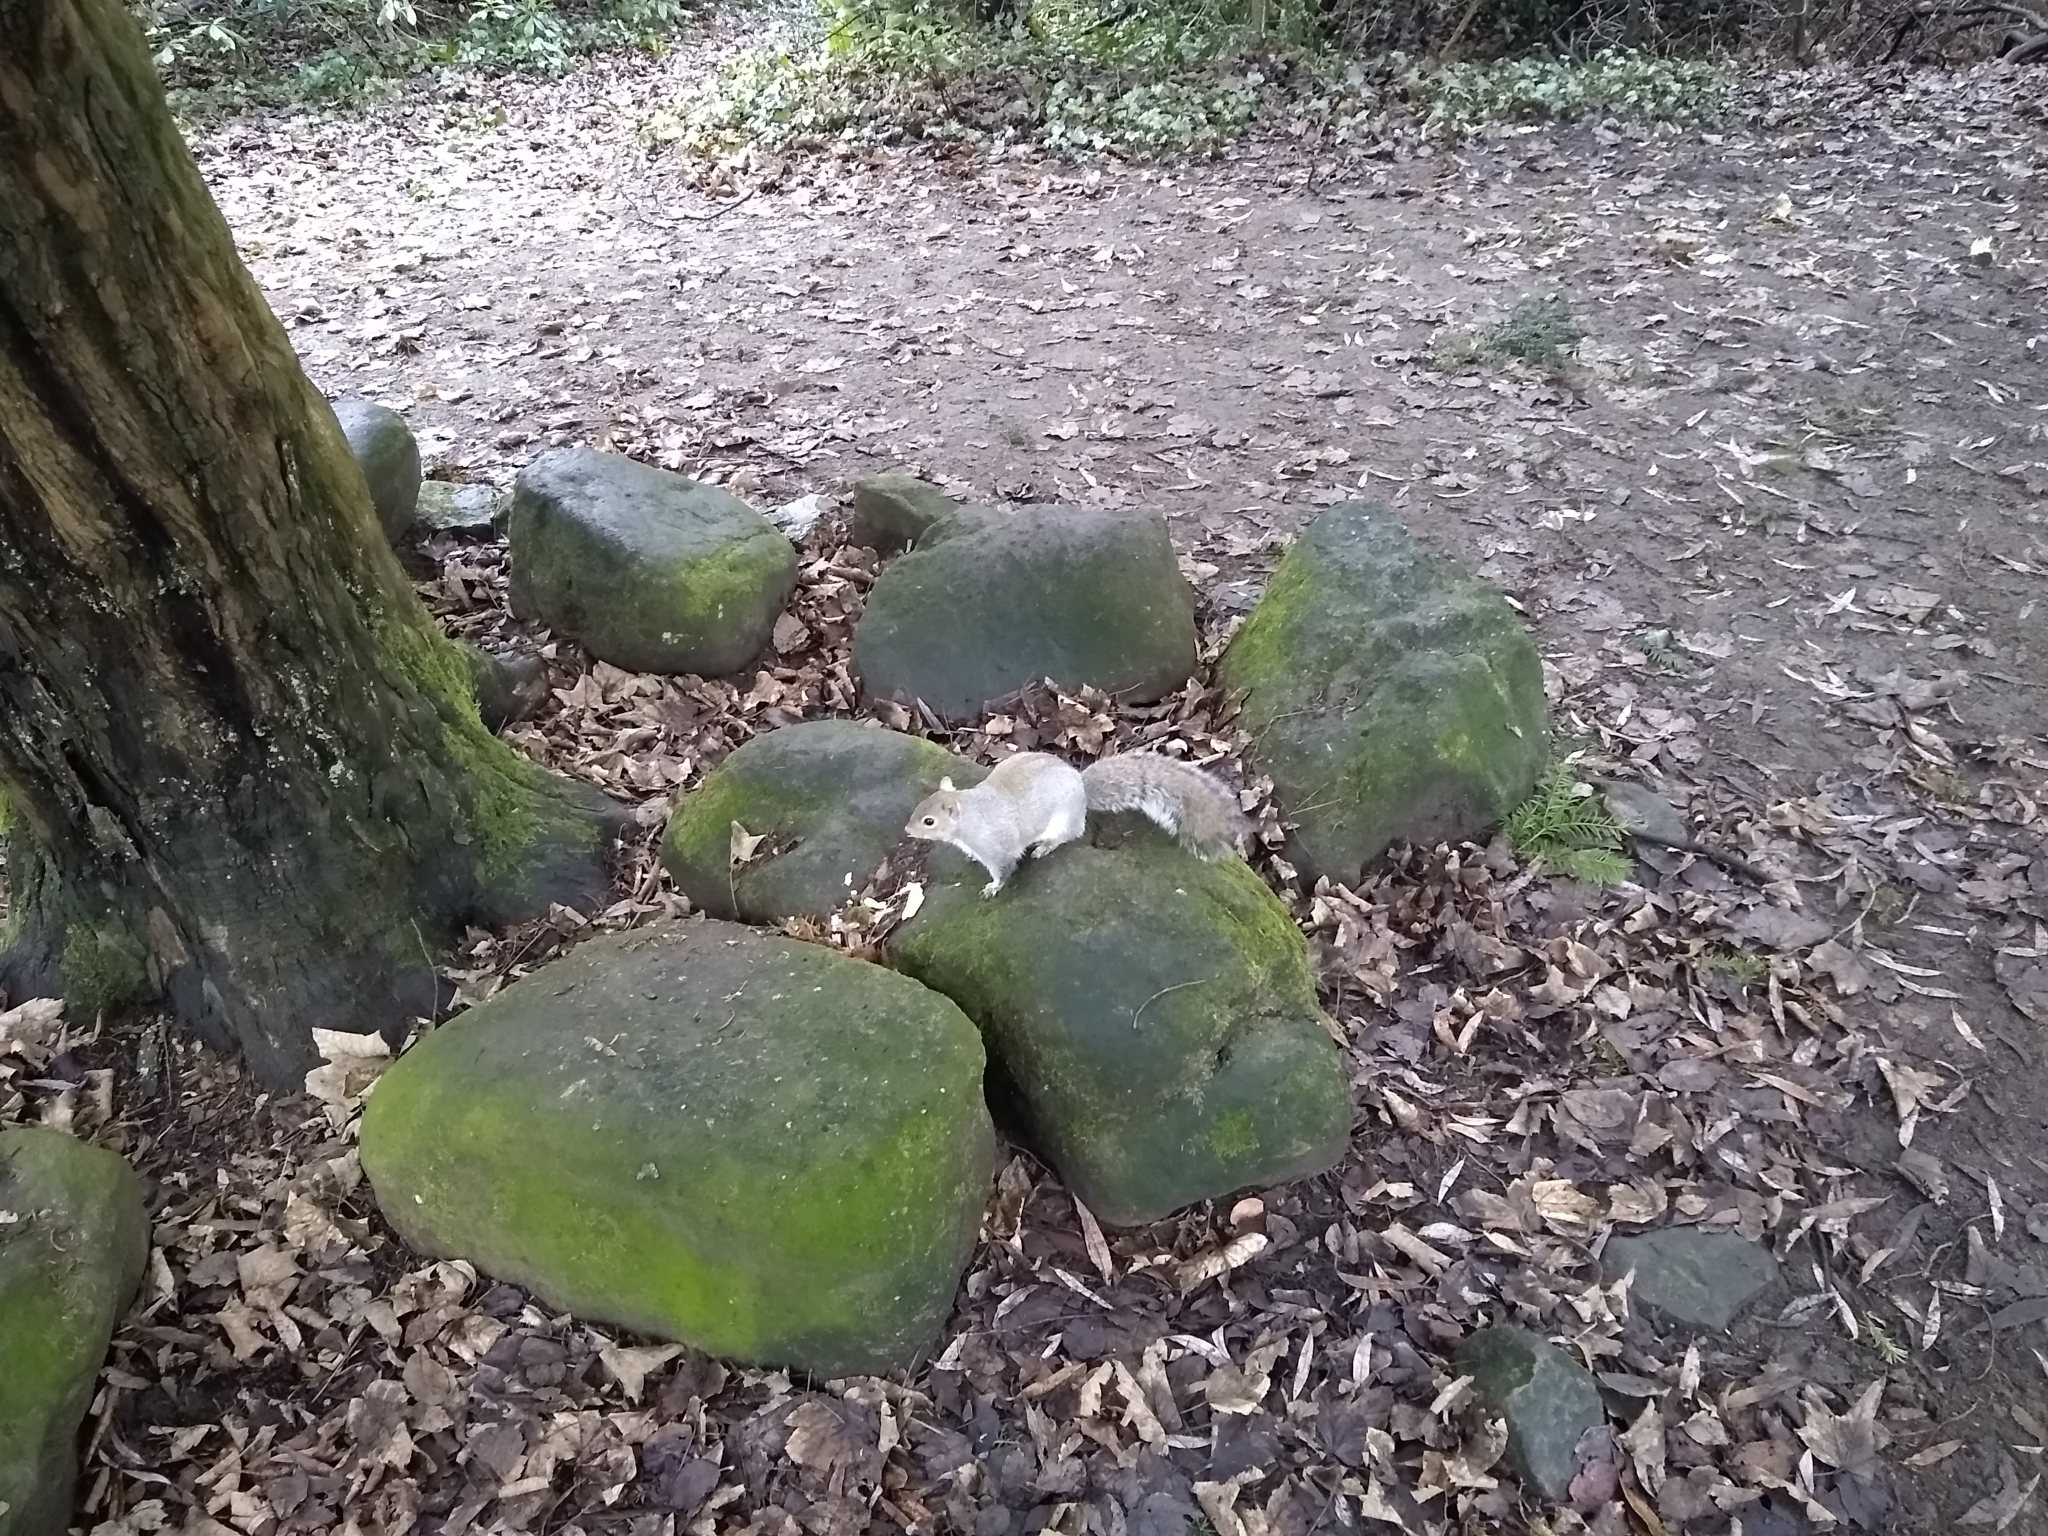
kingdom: Animalia
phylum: Chordata
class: Mammalia
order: Rodentia
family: Sciuridae
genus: Sciurus
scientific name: Sciurus carolinensis
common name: Eastern gray squirrel
